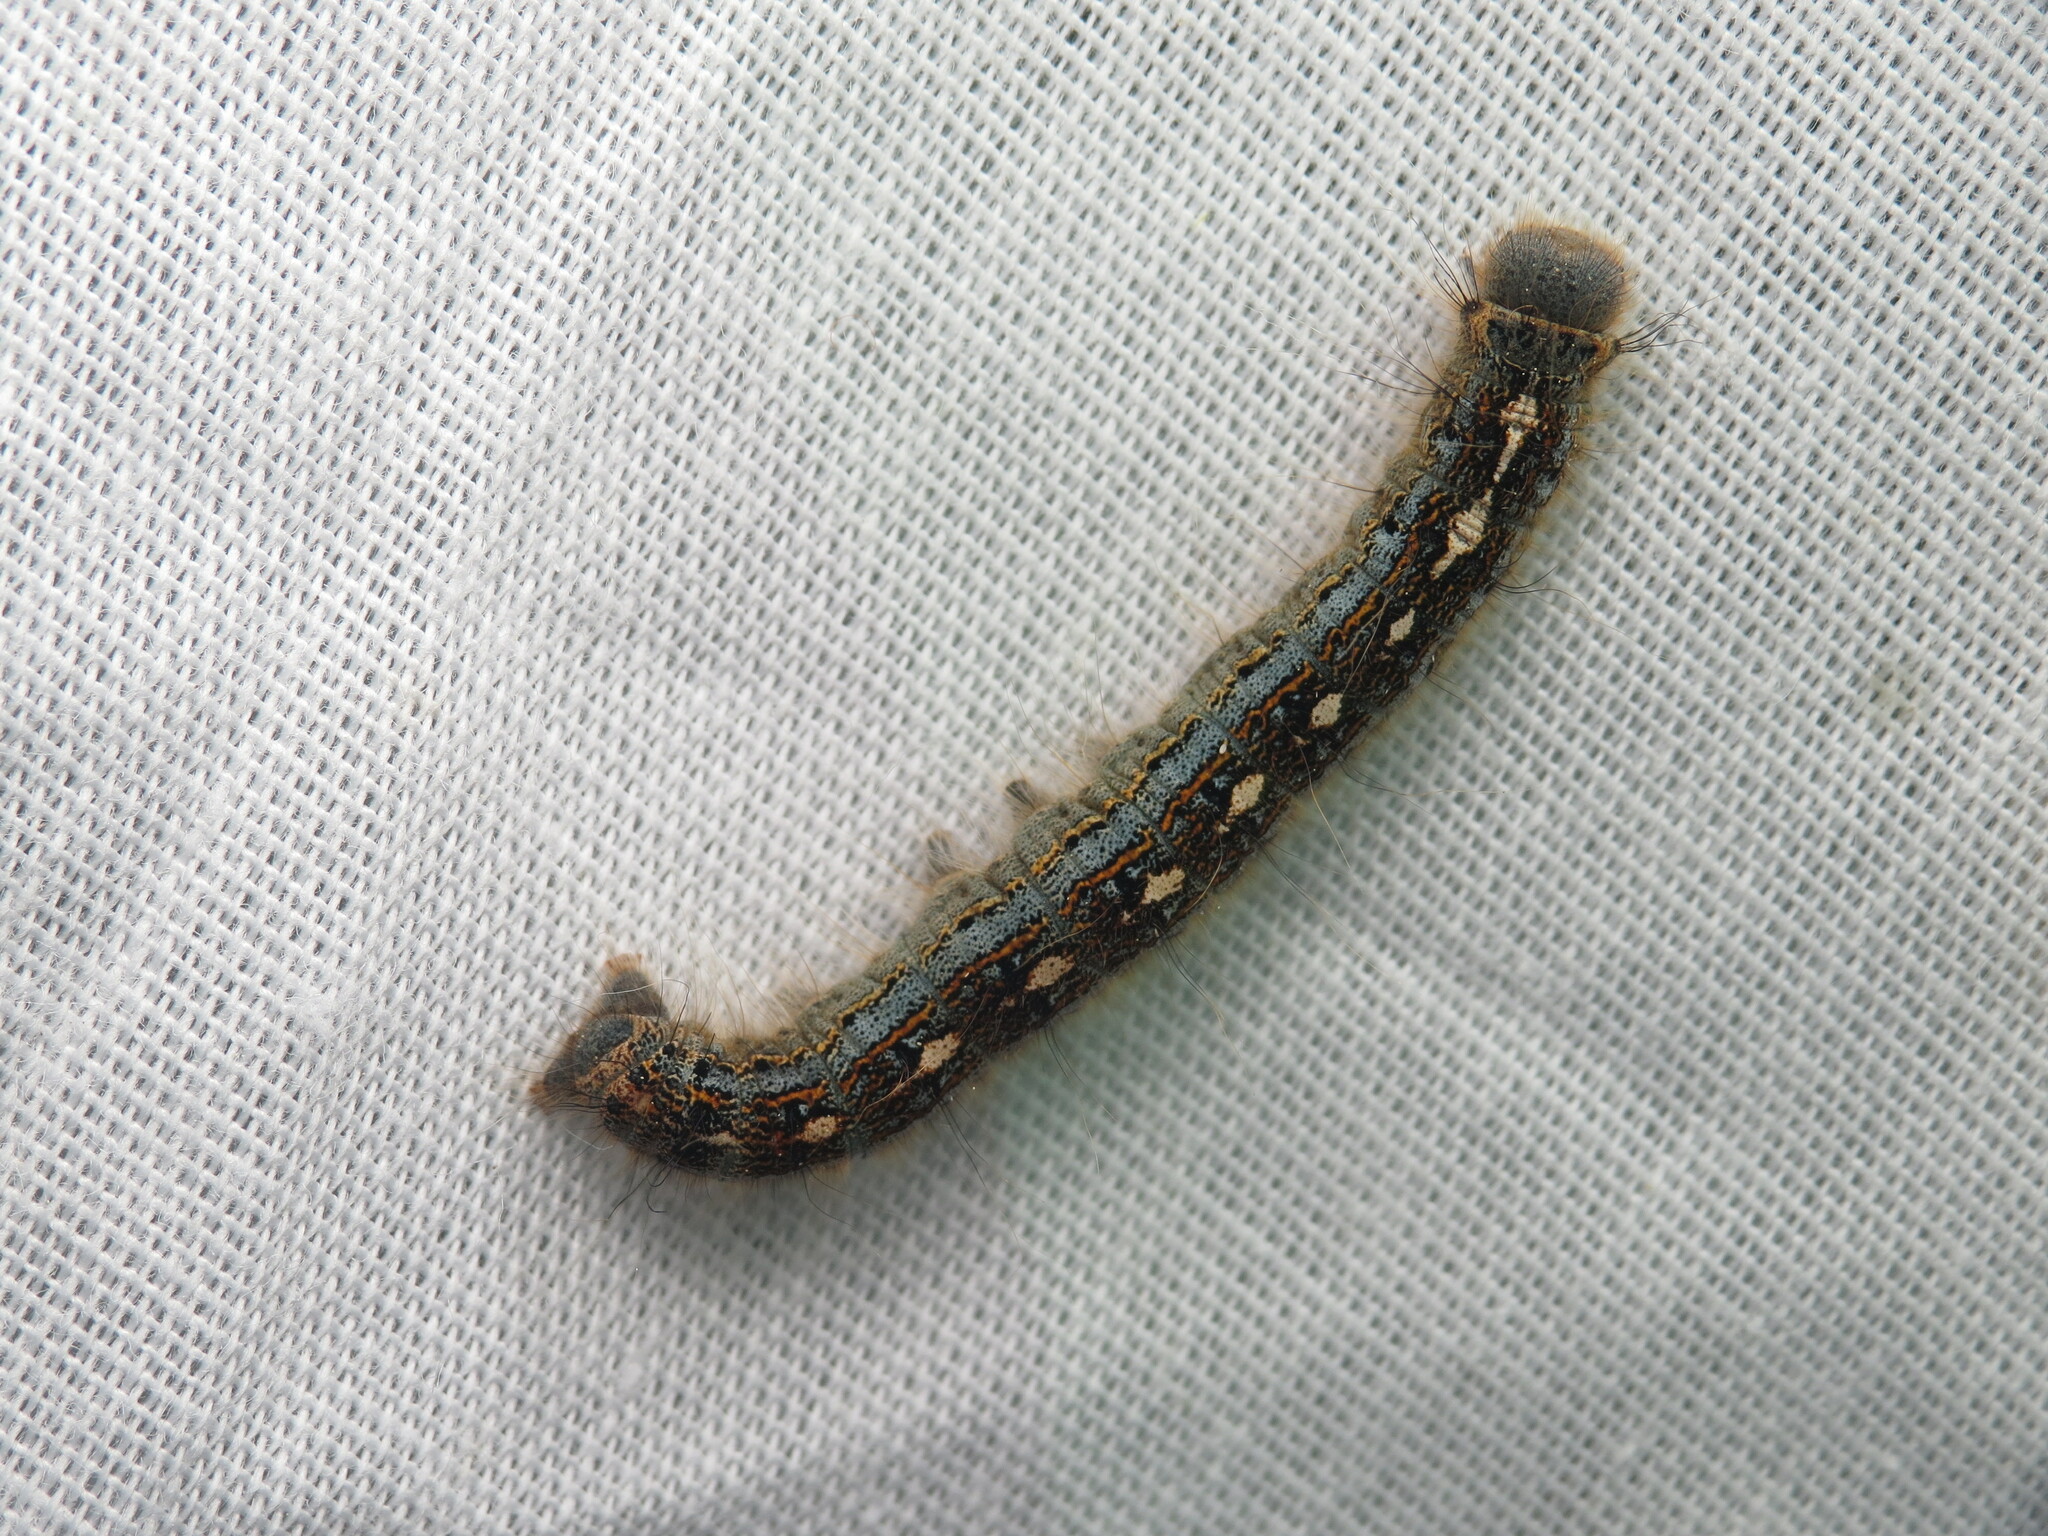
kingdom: Animalia
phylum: Arthropoda
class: Insecta
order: Lepidoptera
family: Lasiocampidae
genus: Malacosoma
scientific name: Malacosoma disstria
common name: Forest tent caterpillar
